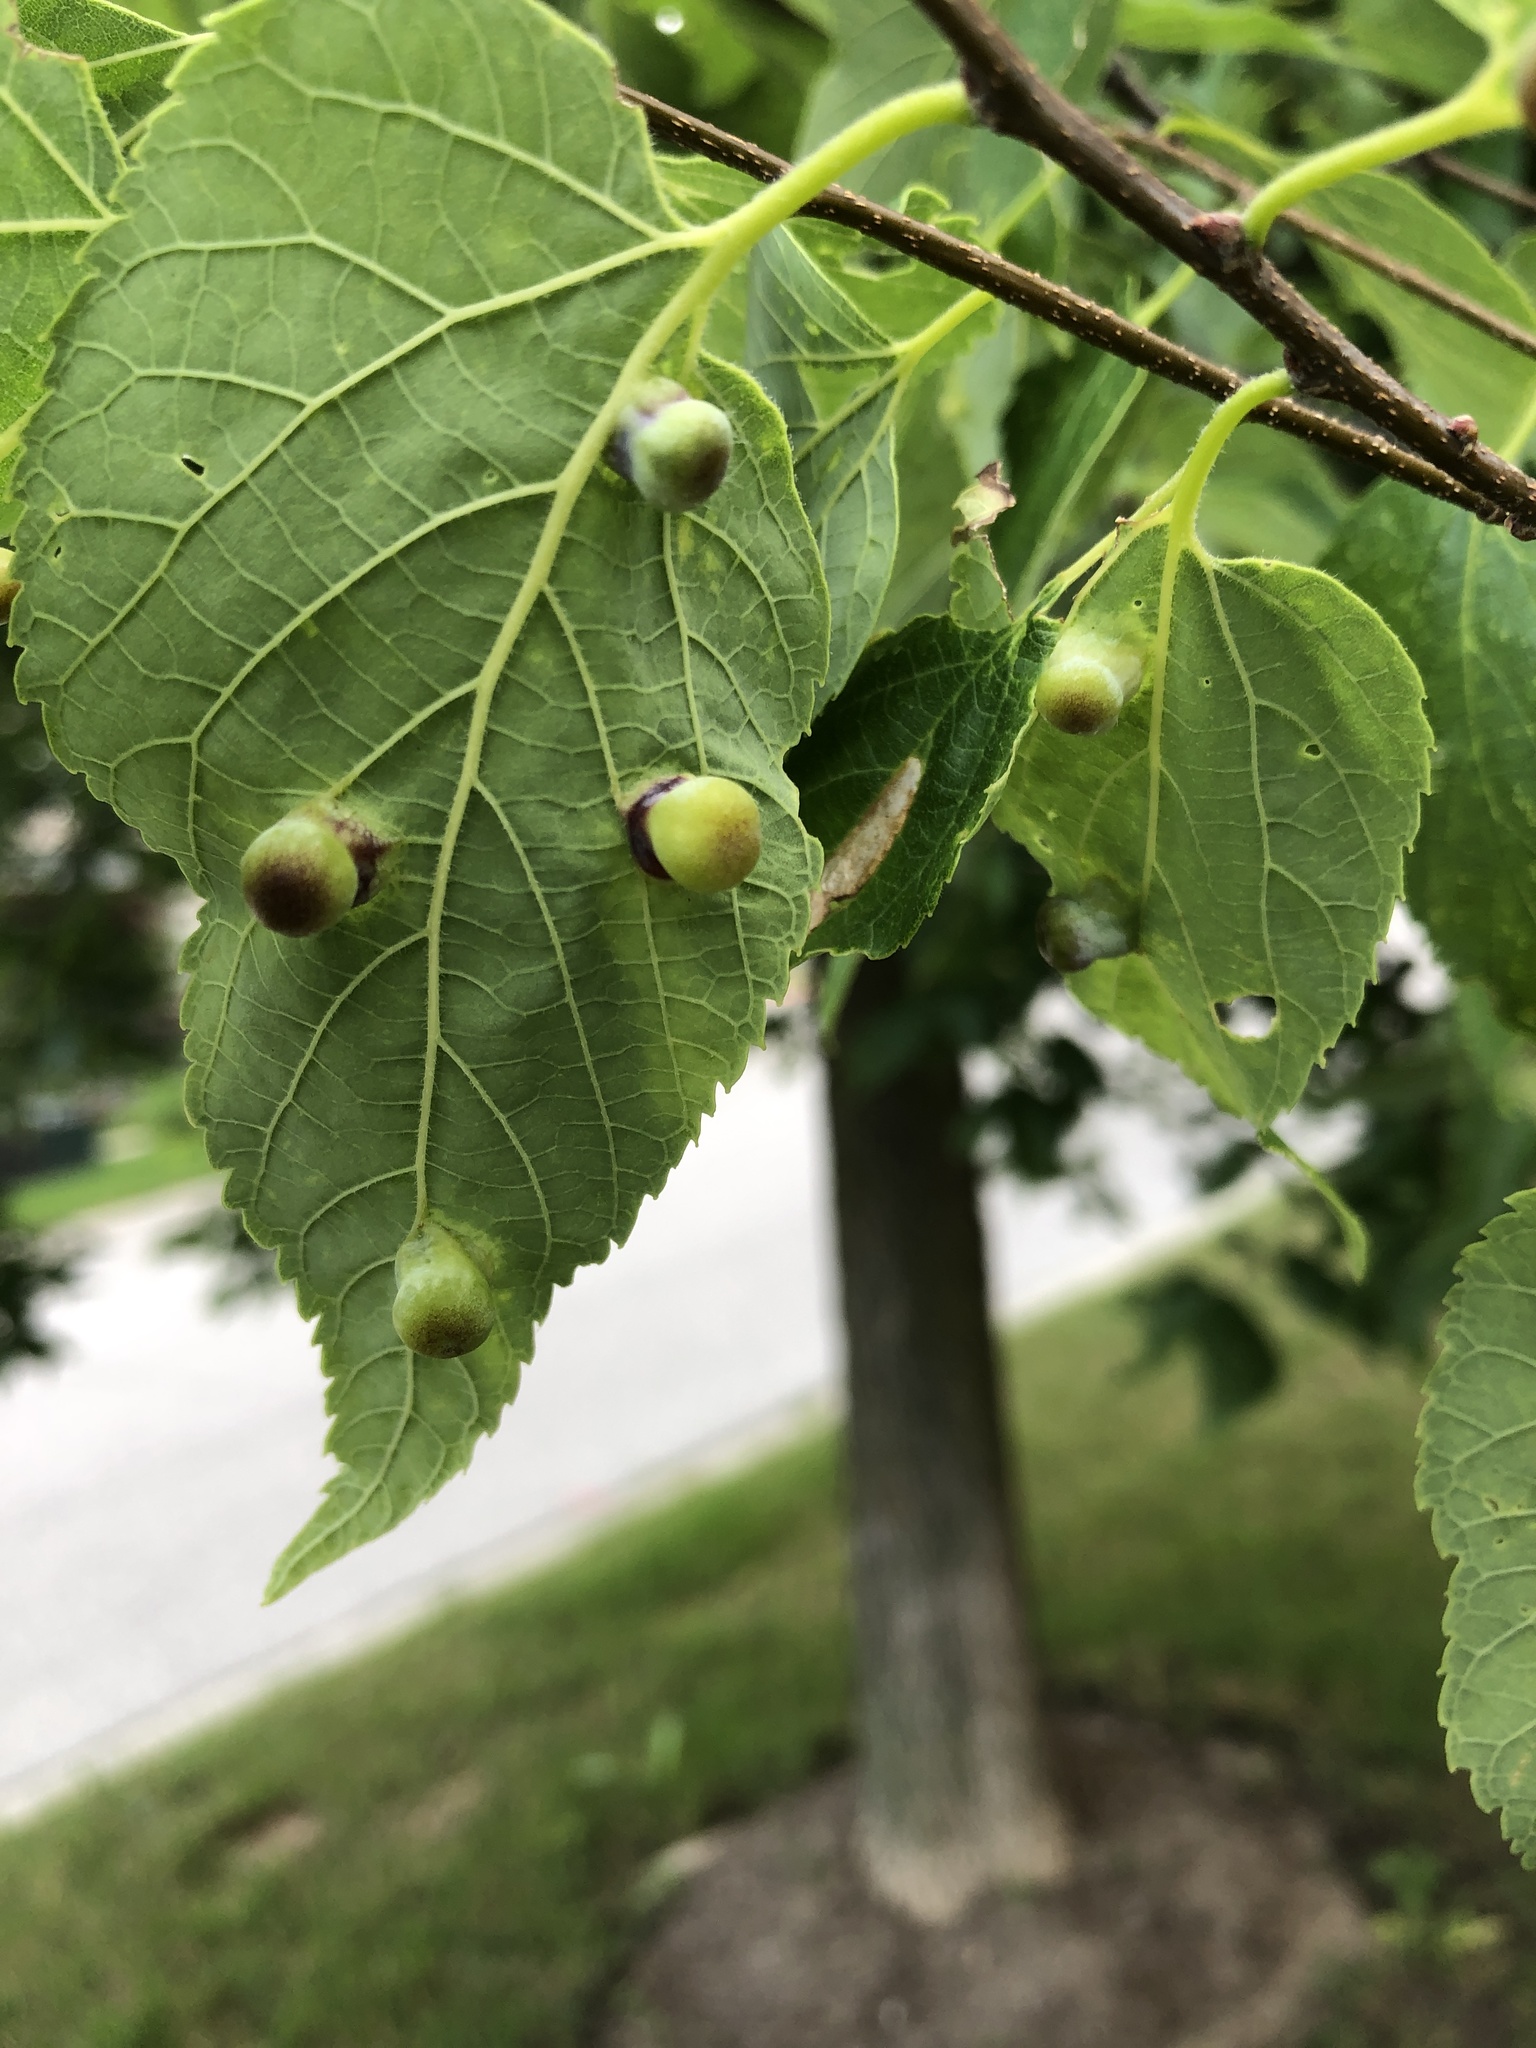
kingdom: Animalia
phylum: Arthropoda
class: Insecta
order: Hemiptera
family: Aphalaridae
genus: Pachypsylla
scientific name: Pachypsylla celtidismamma
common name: Hackberry nipplegall psyllid
